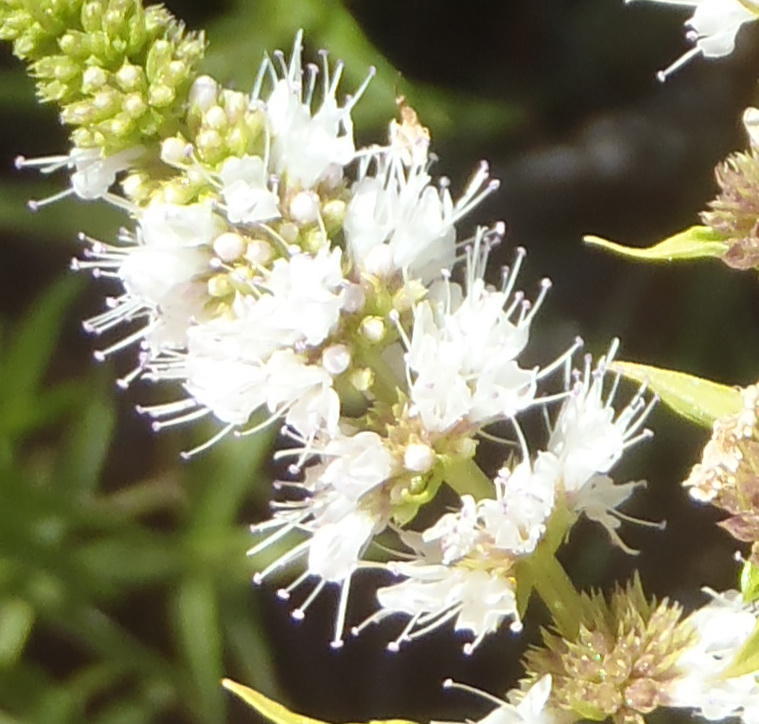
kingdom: Plantae
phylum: Tracheophyta
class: Magnoliopsida
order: Lamiales
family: Lamiaceae
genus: Mentha
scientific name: Mentha longifolia
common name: Horse mint
